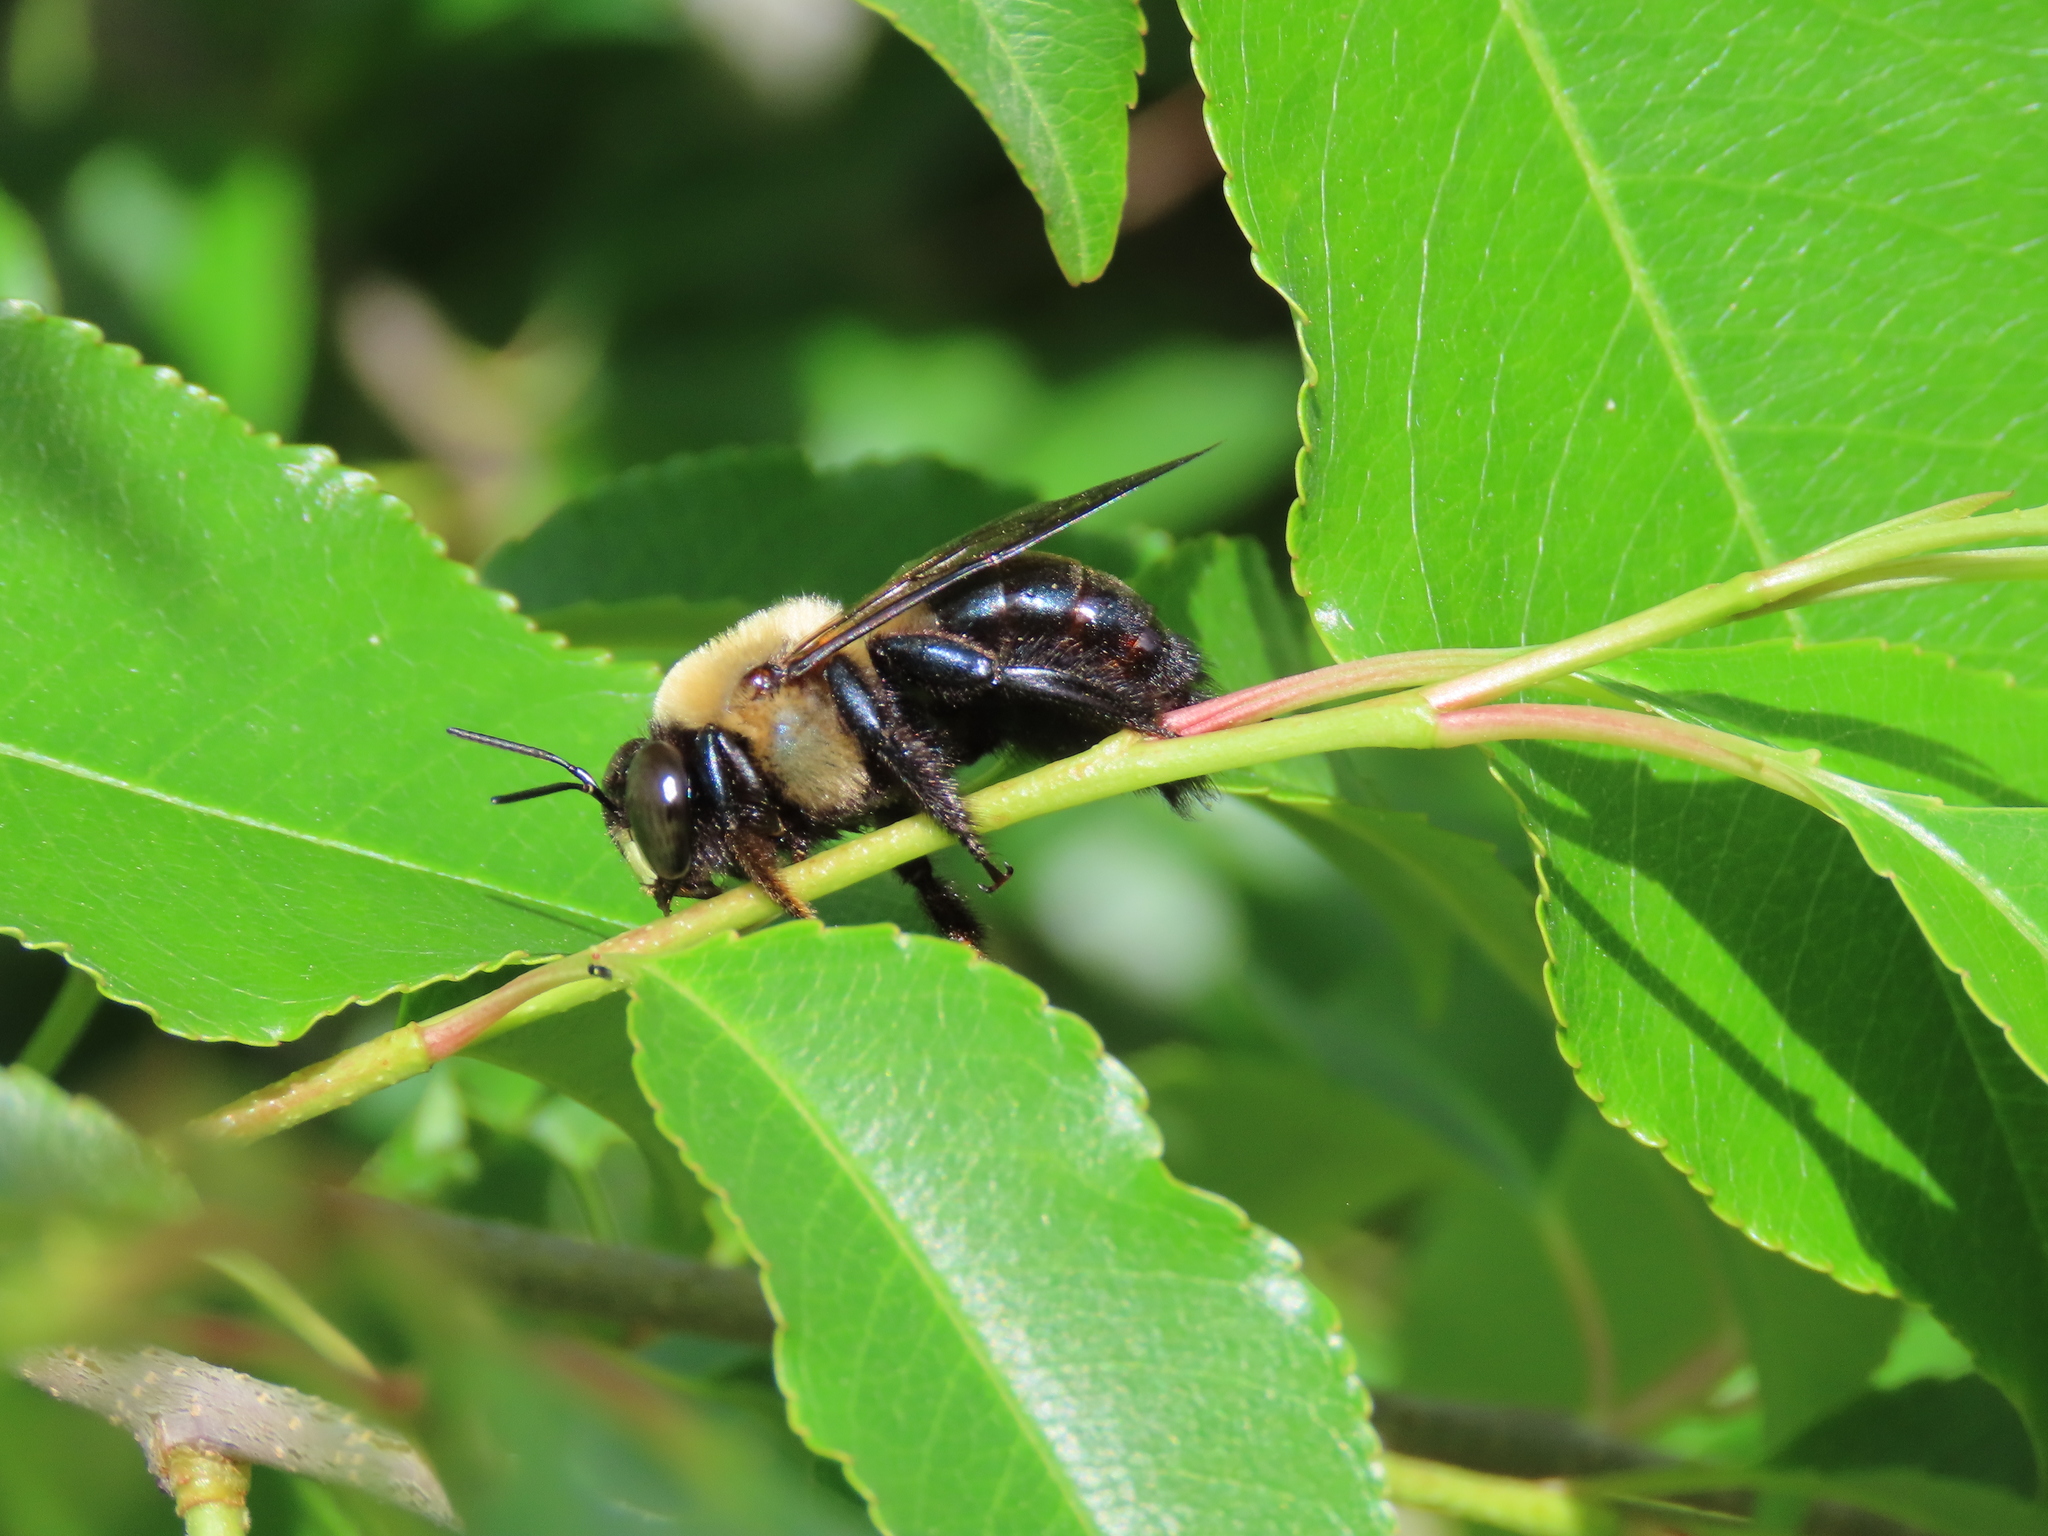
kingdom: Animalia
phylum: Arthropoda
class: Insecta
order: Hymenoptera
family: Apidae
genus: Xylocopa
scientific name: Xylocopa virginica
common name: Carpenter bee
